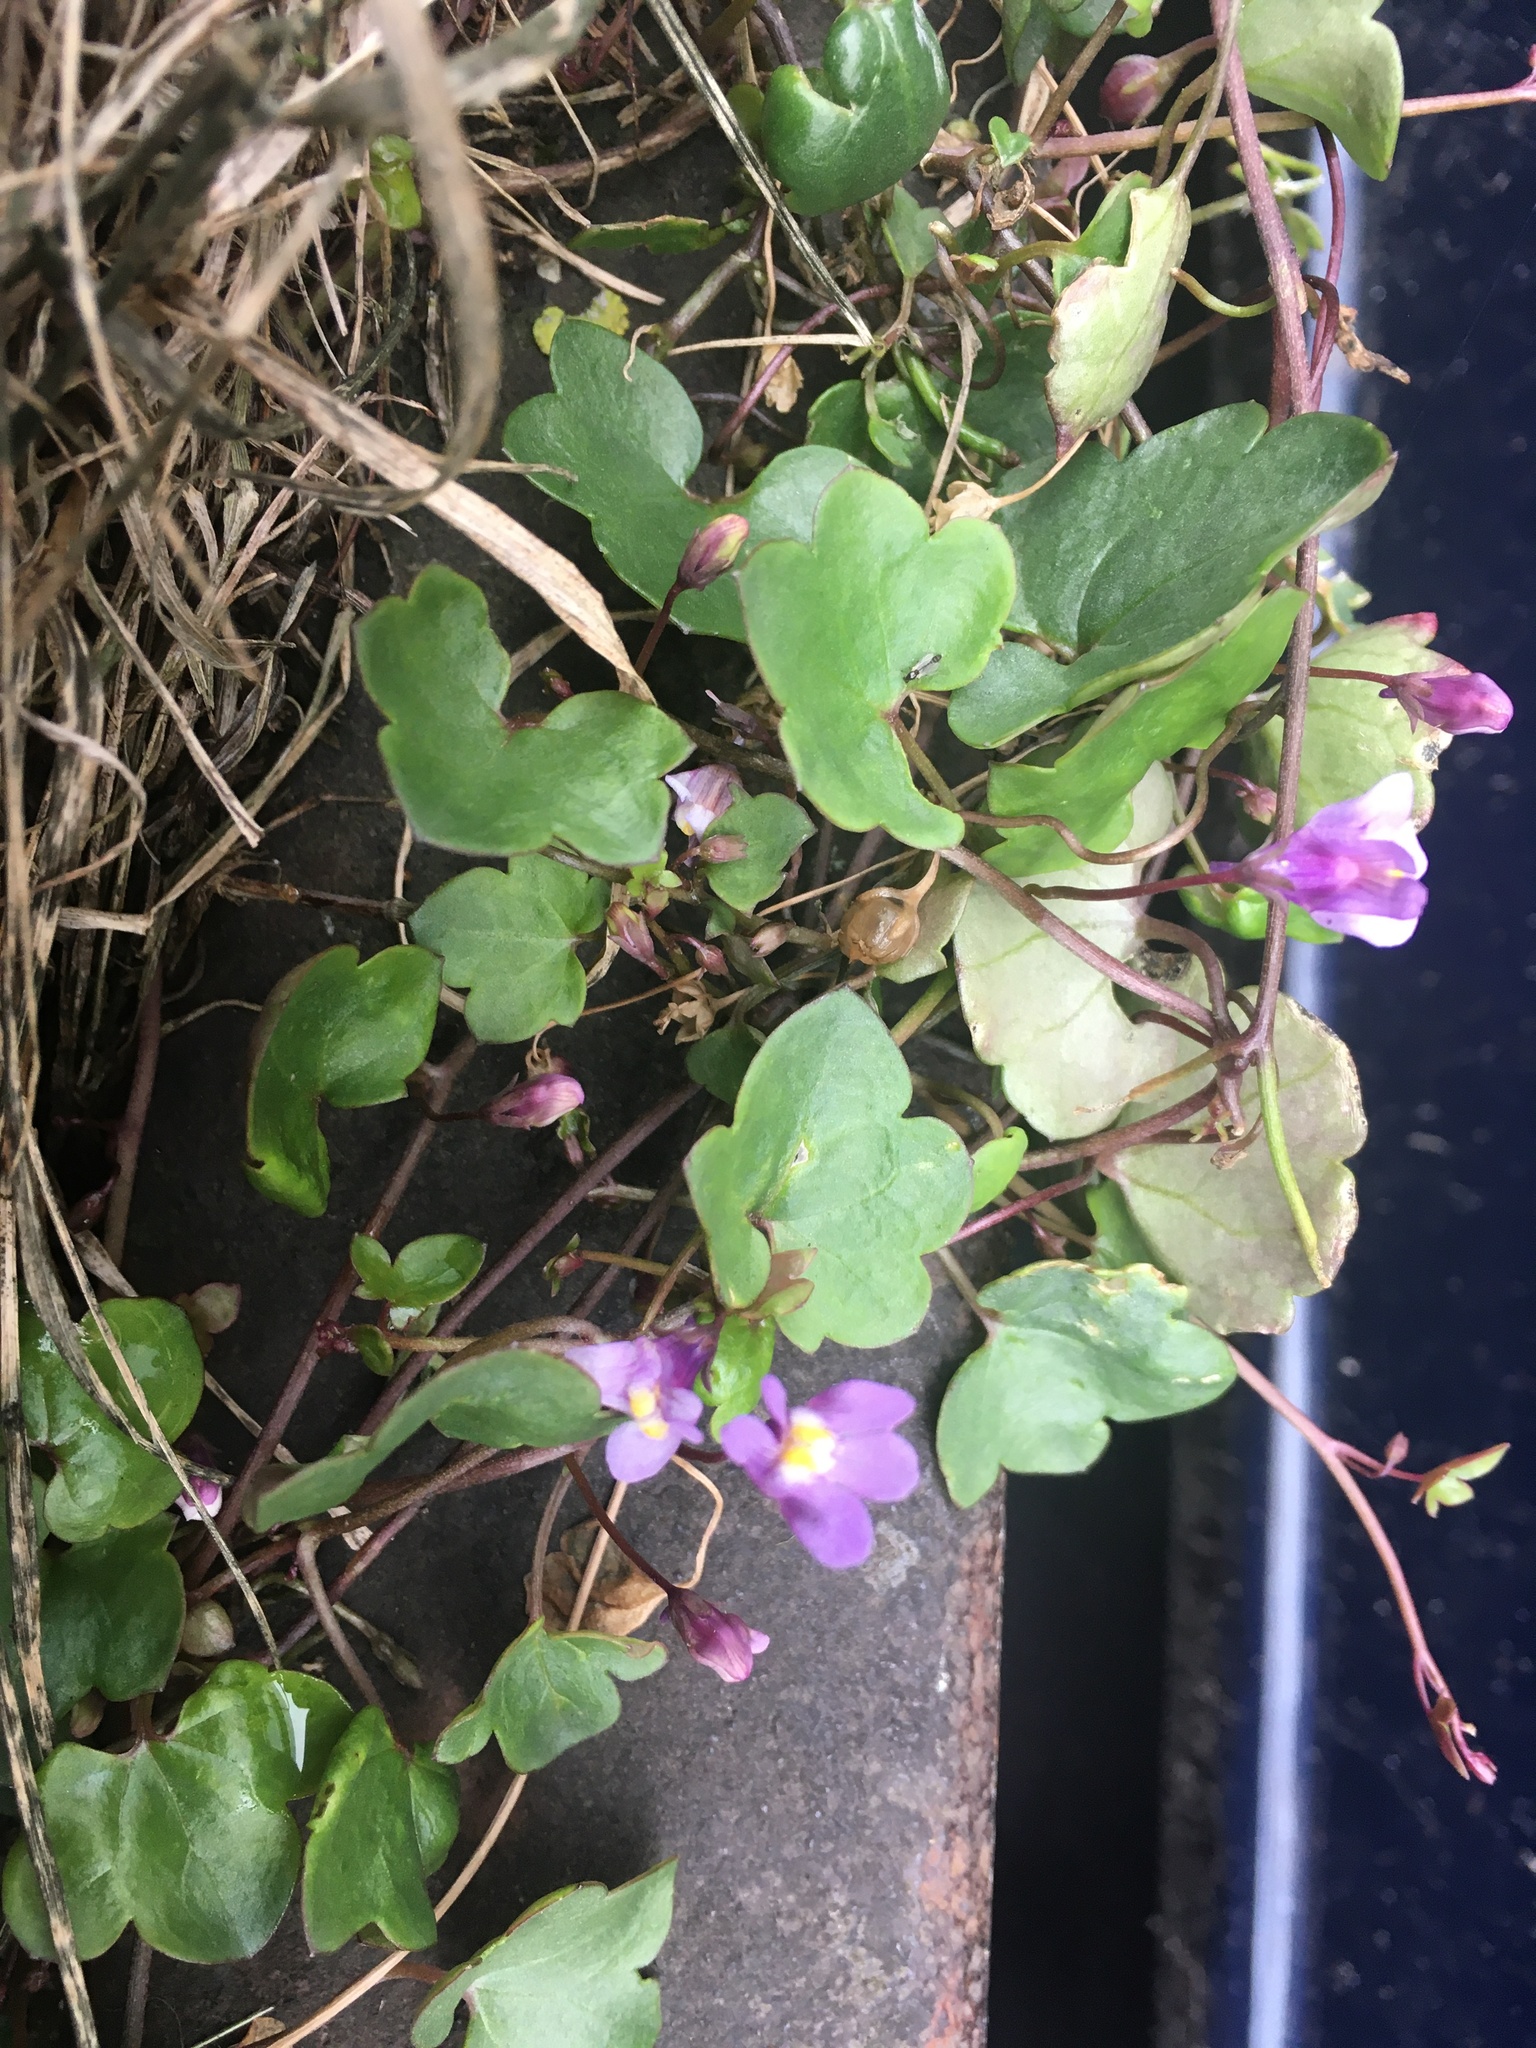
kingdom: Plantae
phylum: Tracheophyta
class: Magnoliopsida
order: Lamiales
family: Plantaginaceae
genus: Cymbalaria
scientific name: Cymbalaria muralis
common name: Ivy-leaved toadflax
